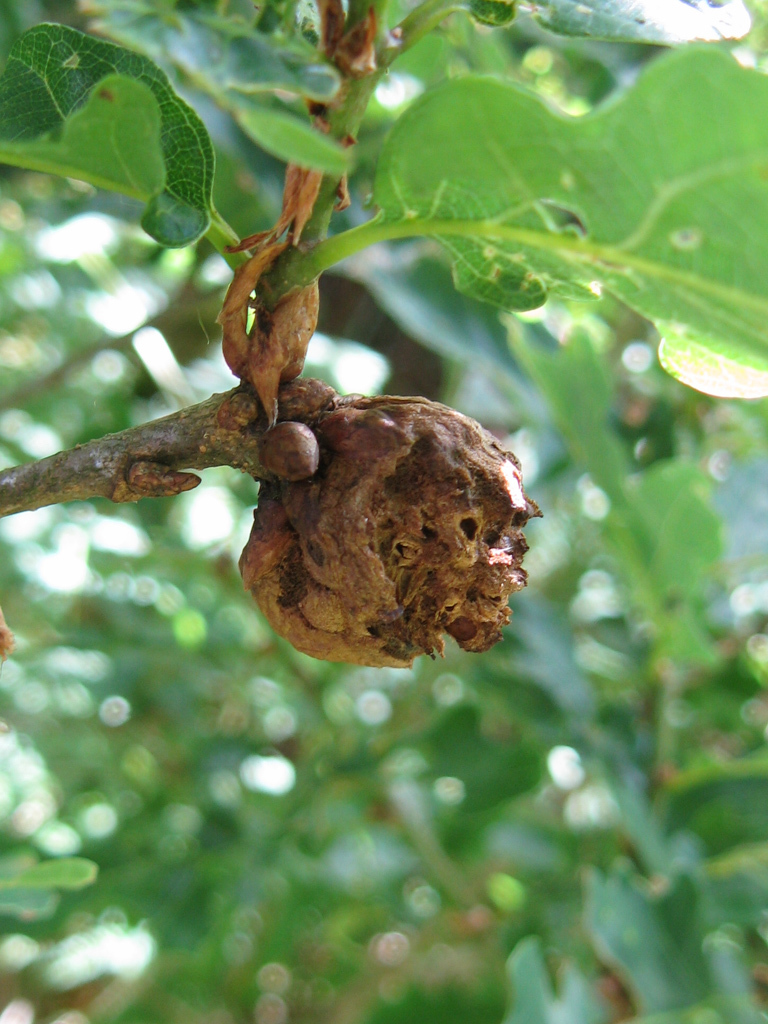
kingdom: Animalia
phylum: Arthropoda
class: Insecta
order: Hymenoptera
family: Cynipidae
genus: Biorhiza
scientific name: Biorhiza pallida
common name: Oak apple
